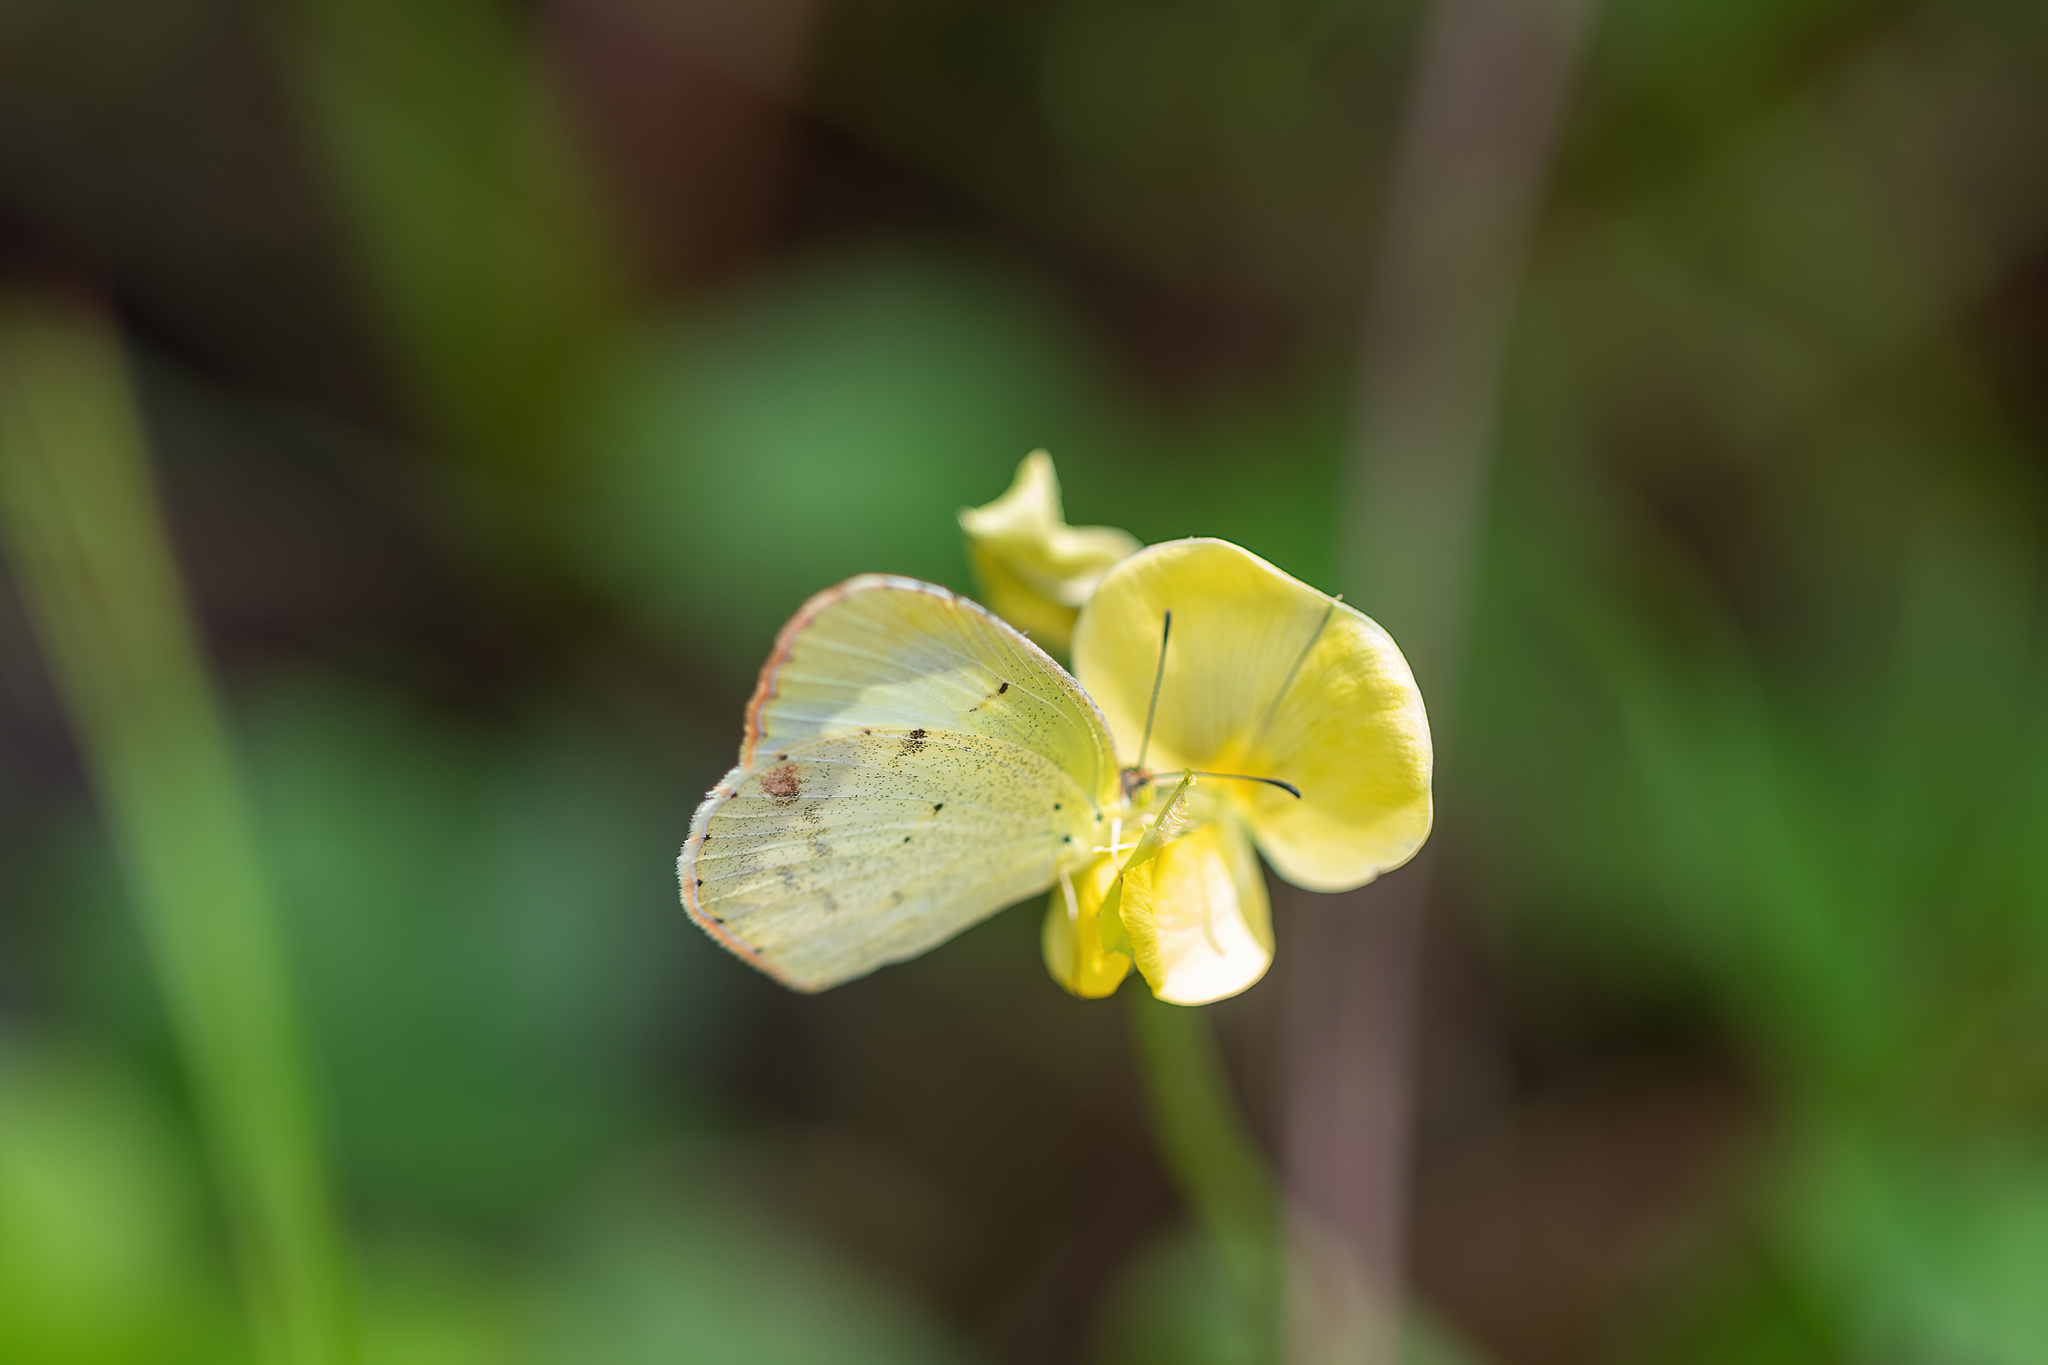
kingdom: Animalia
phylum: Arthropoda
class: Insecta
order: Lepidoptera
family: Pieridae
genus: Pyrisitia
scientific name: Pyrisitia lisa
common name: Little yellow
